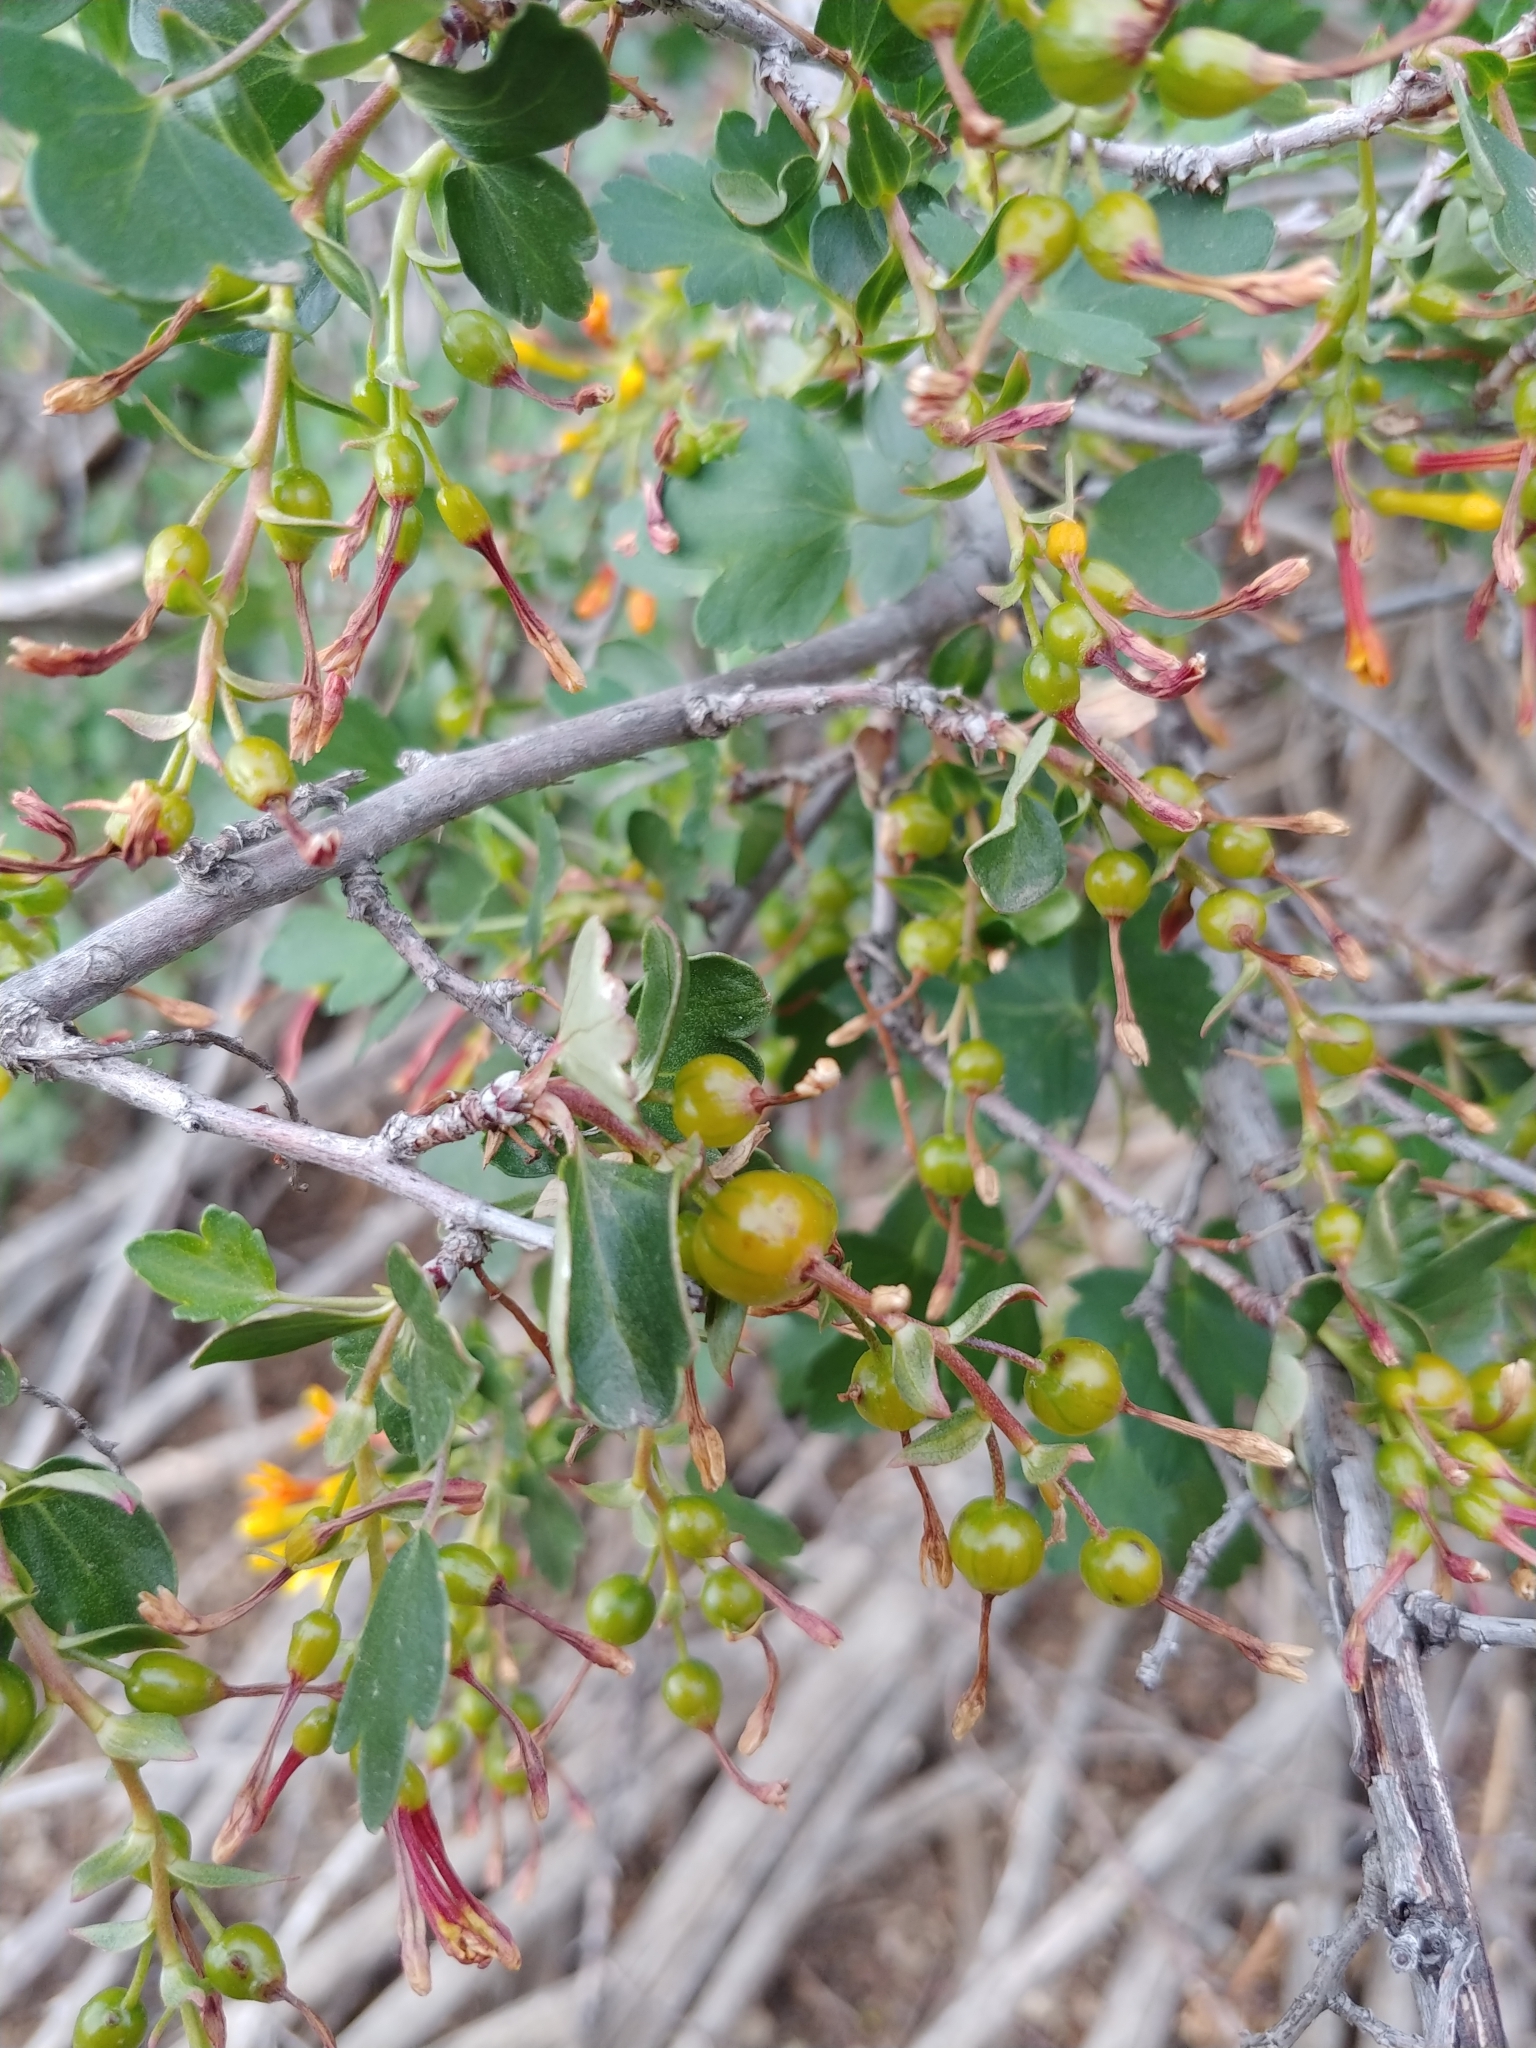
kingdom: Plantae
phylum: Tracheophyta
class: Magnoliopsida
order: Saxifragales
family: Grossulariaceae
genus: Ribes
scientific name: Ribes aureum
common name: Golden currant
